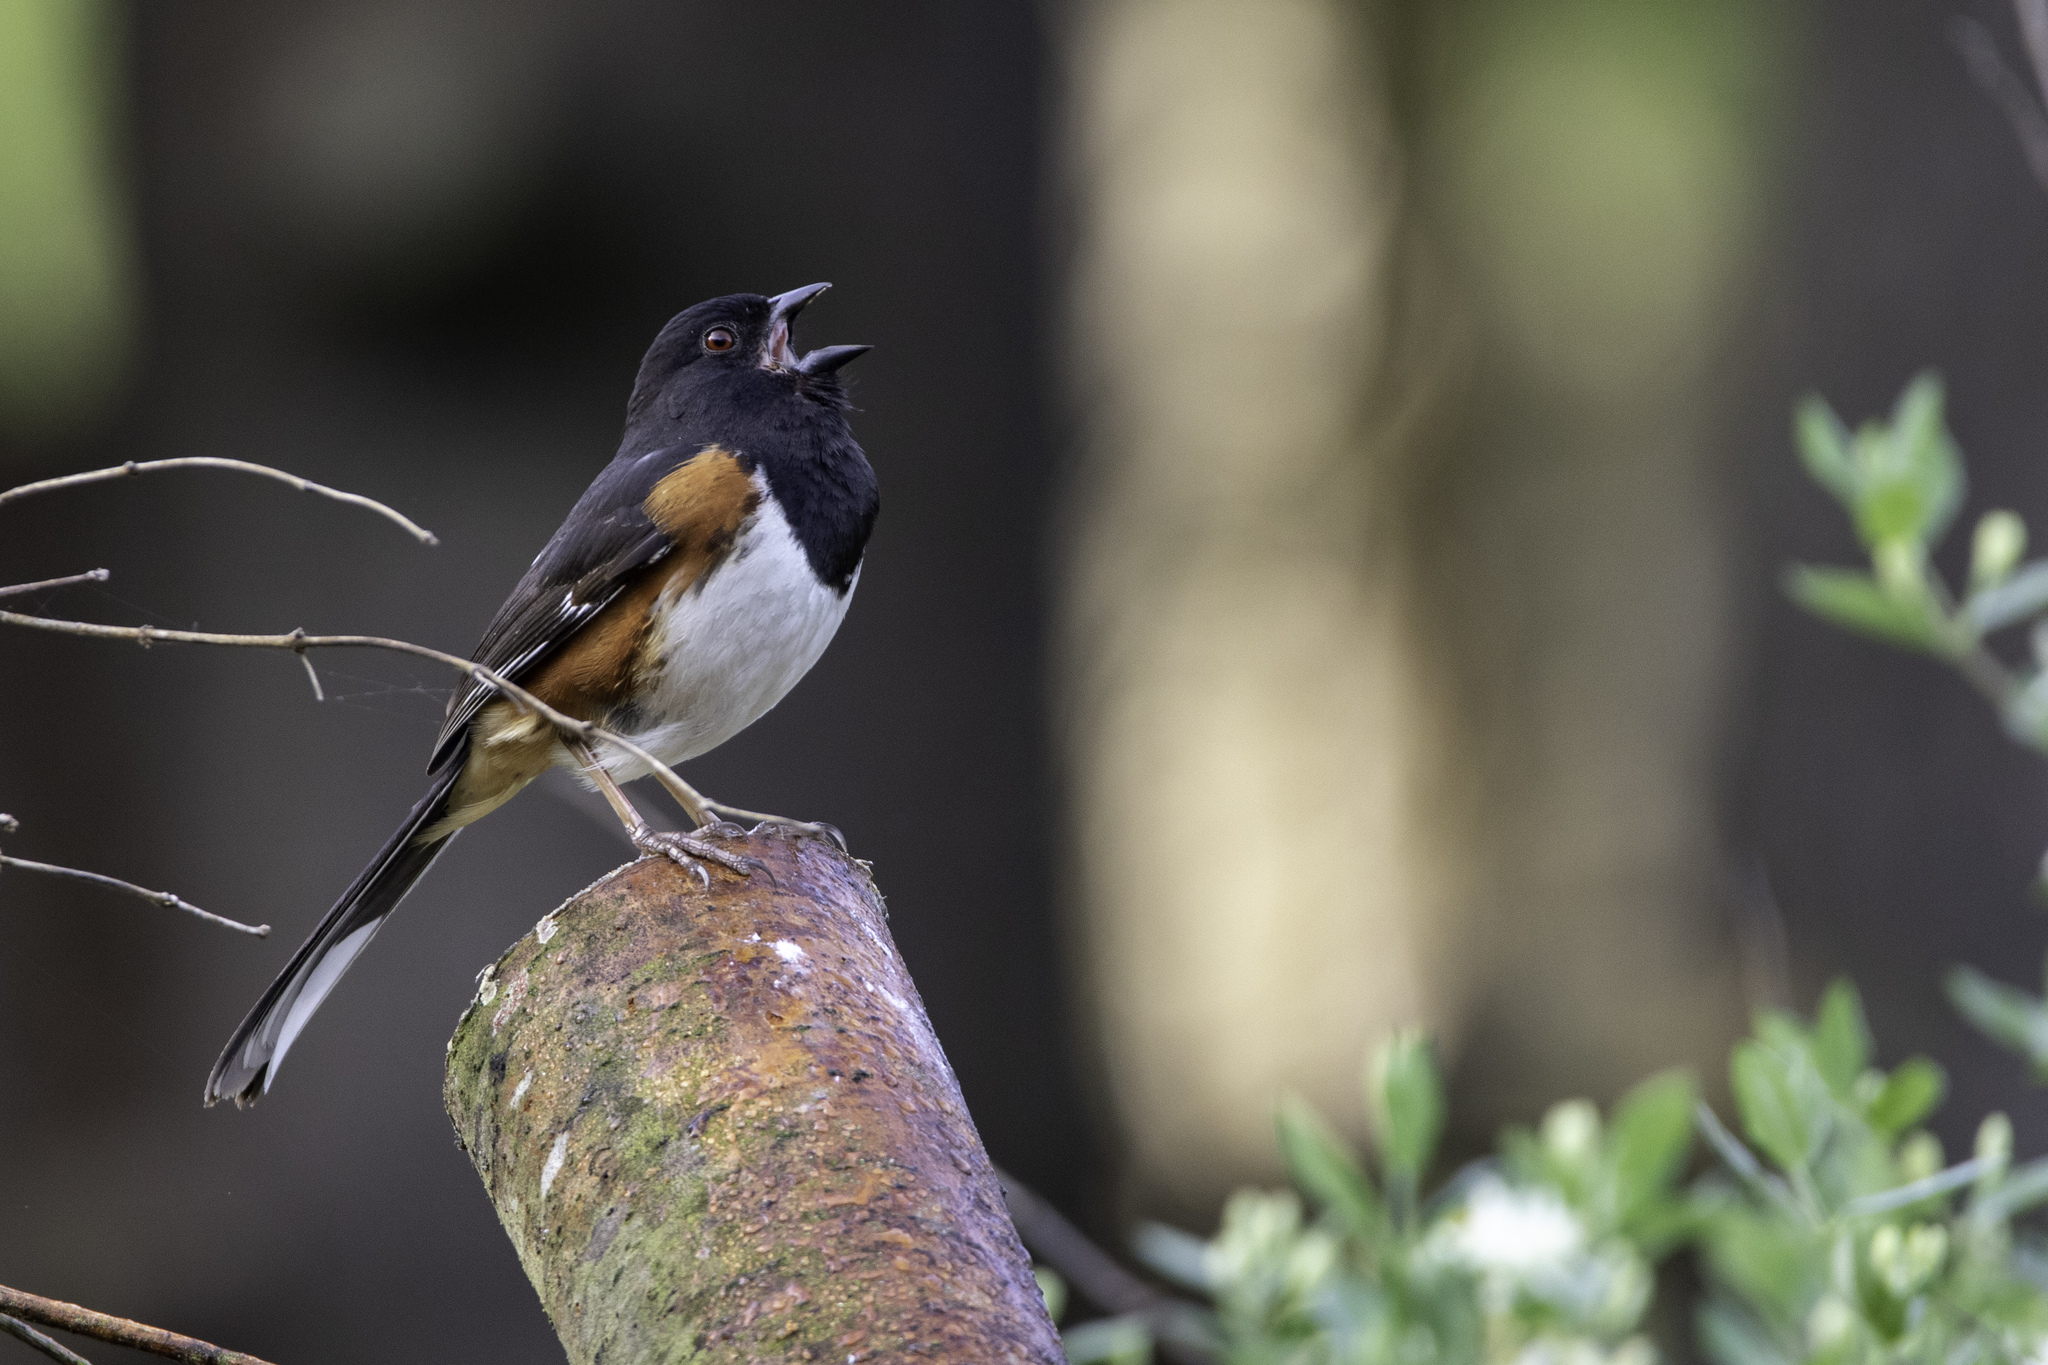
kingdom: Animalia
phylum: Chordata
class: Aves
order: Passeriformes
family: Passerellidae
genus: Pipilo
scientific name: Pipilo erythrophthalmus
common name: Eastern towhee
